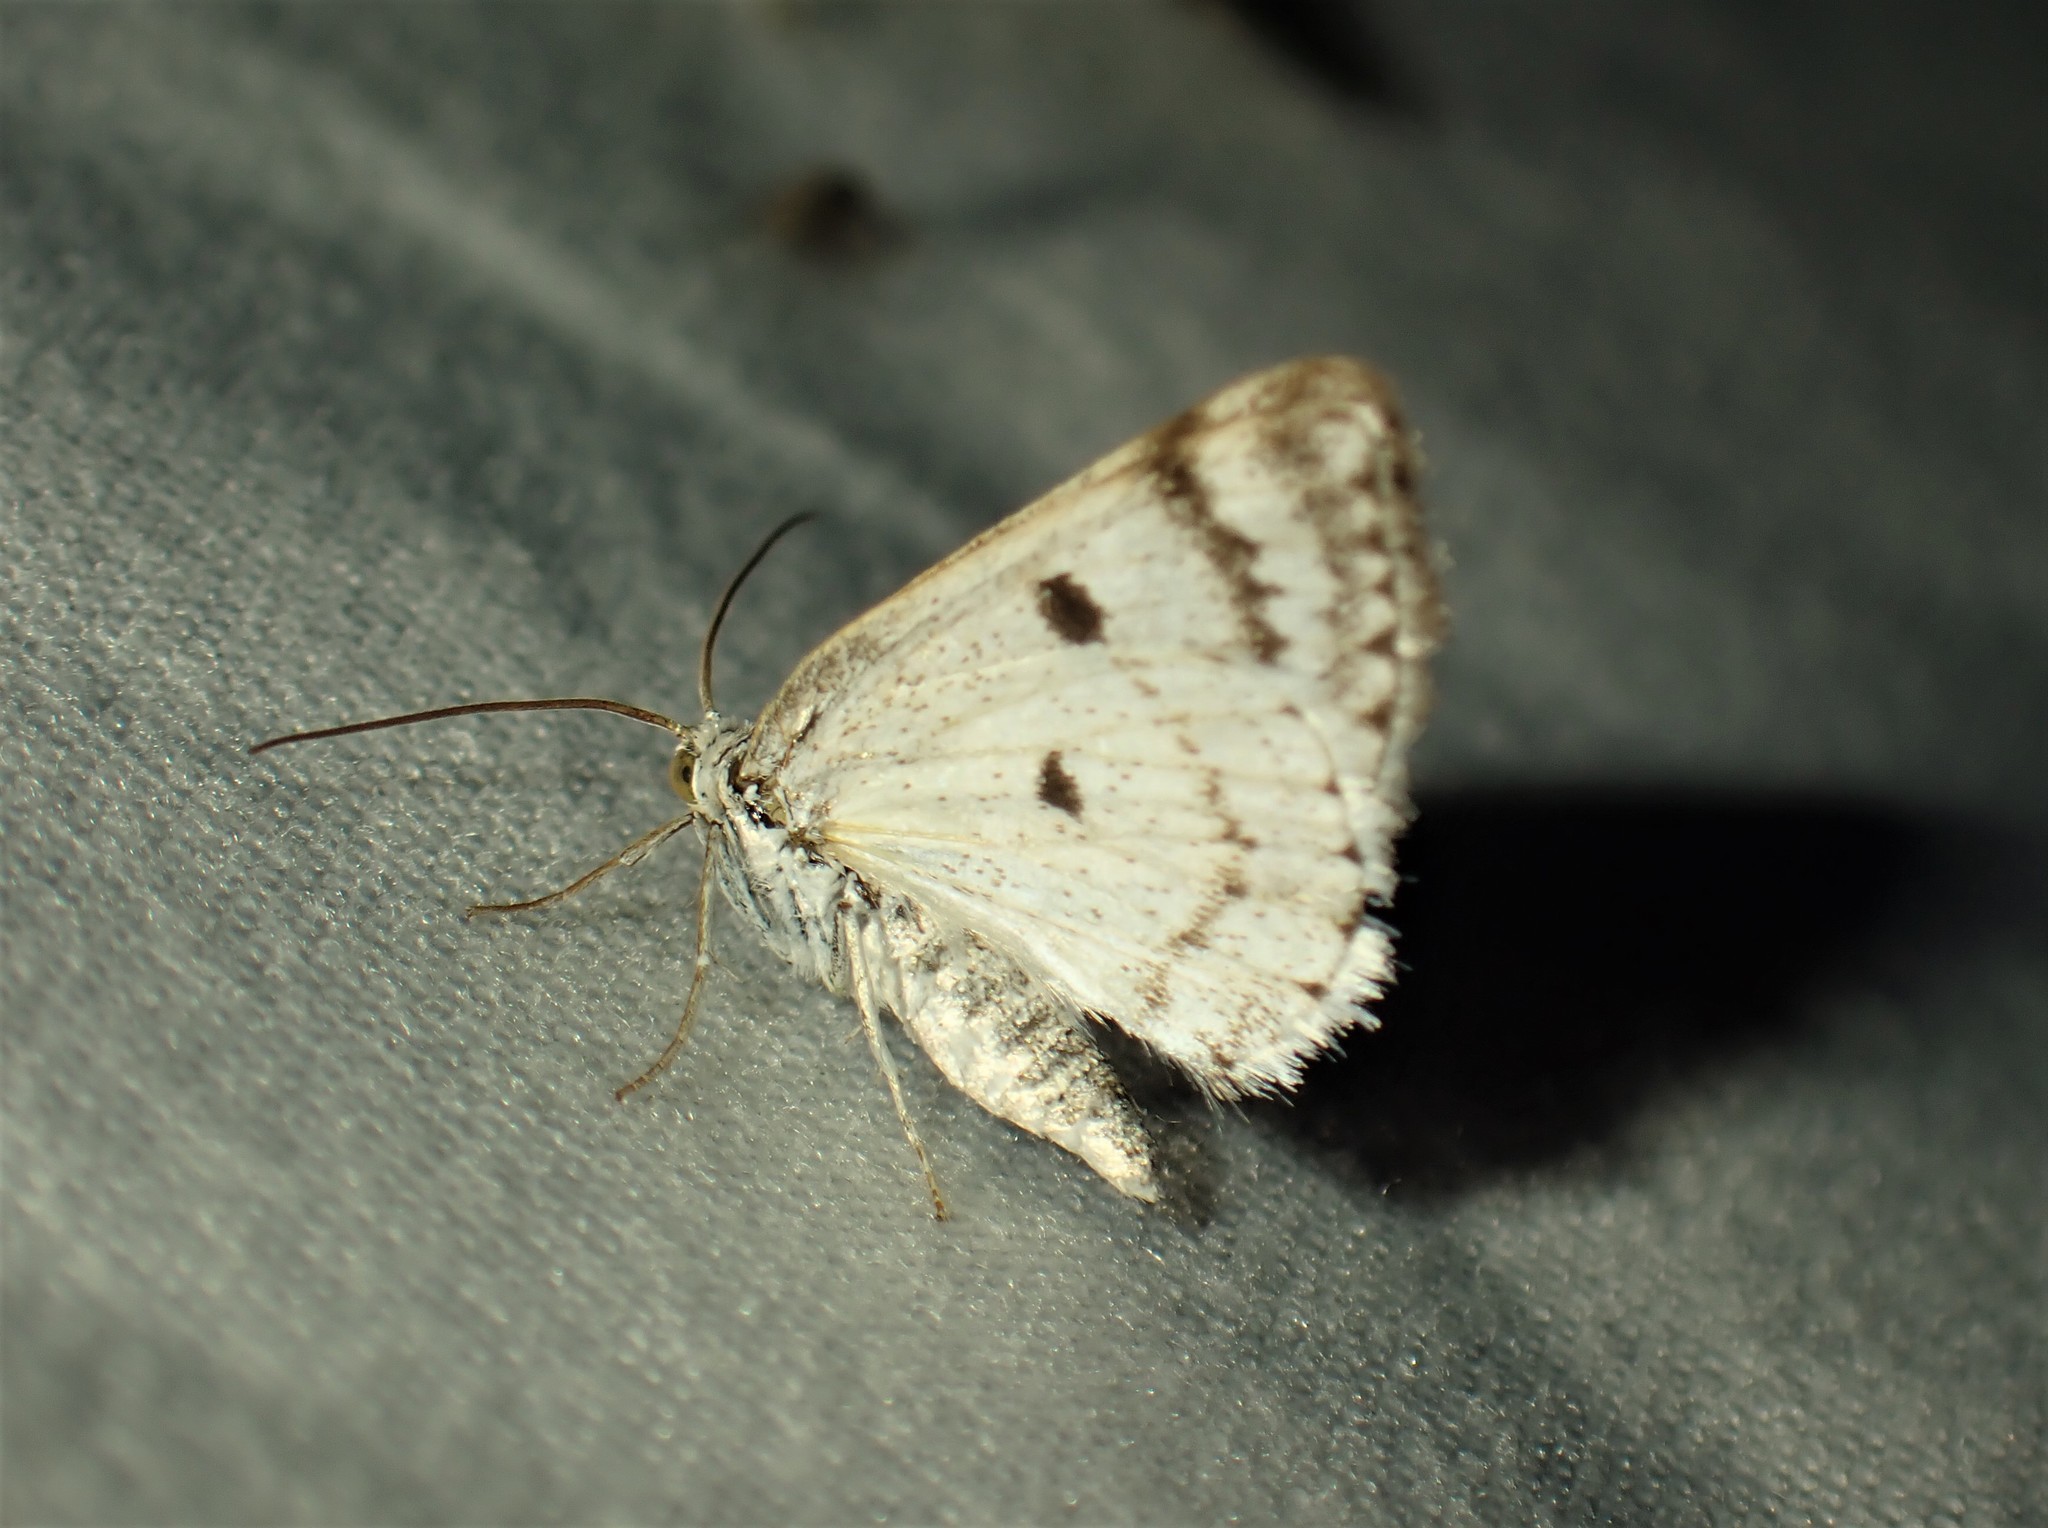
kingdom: Animalia
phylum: Arthropoda
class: Insecta
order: Lepidoptera
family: Geometridae
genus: Lomographa
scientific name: Lomographa semiclarata
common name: Bluish spring moth
